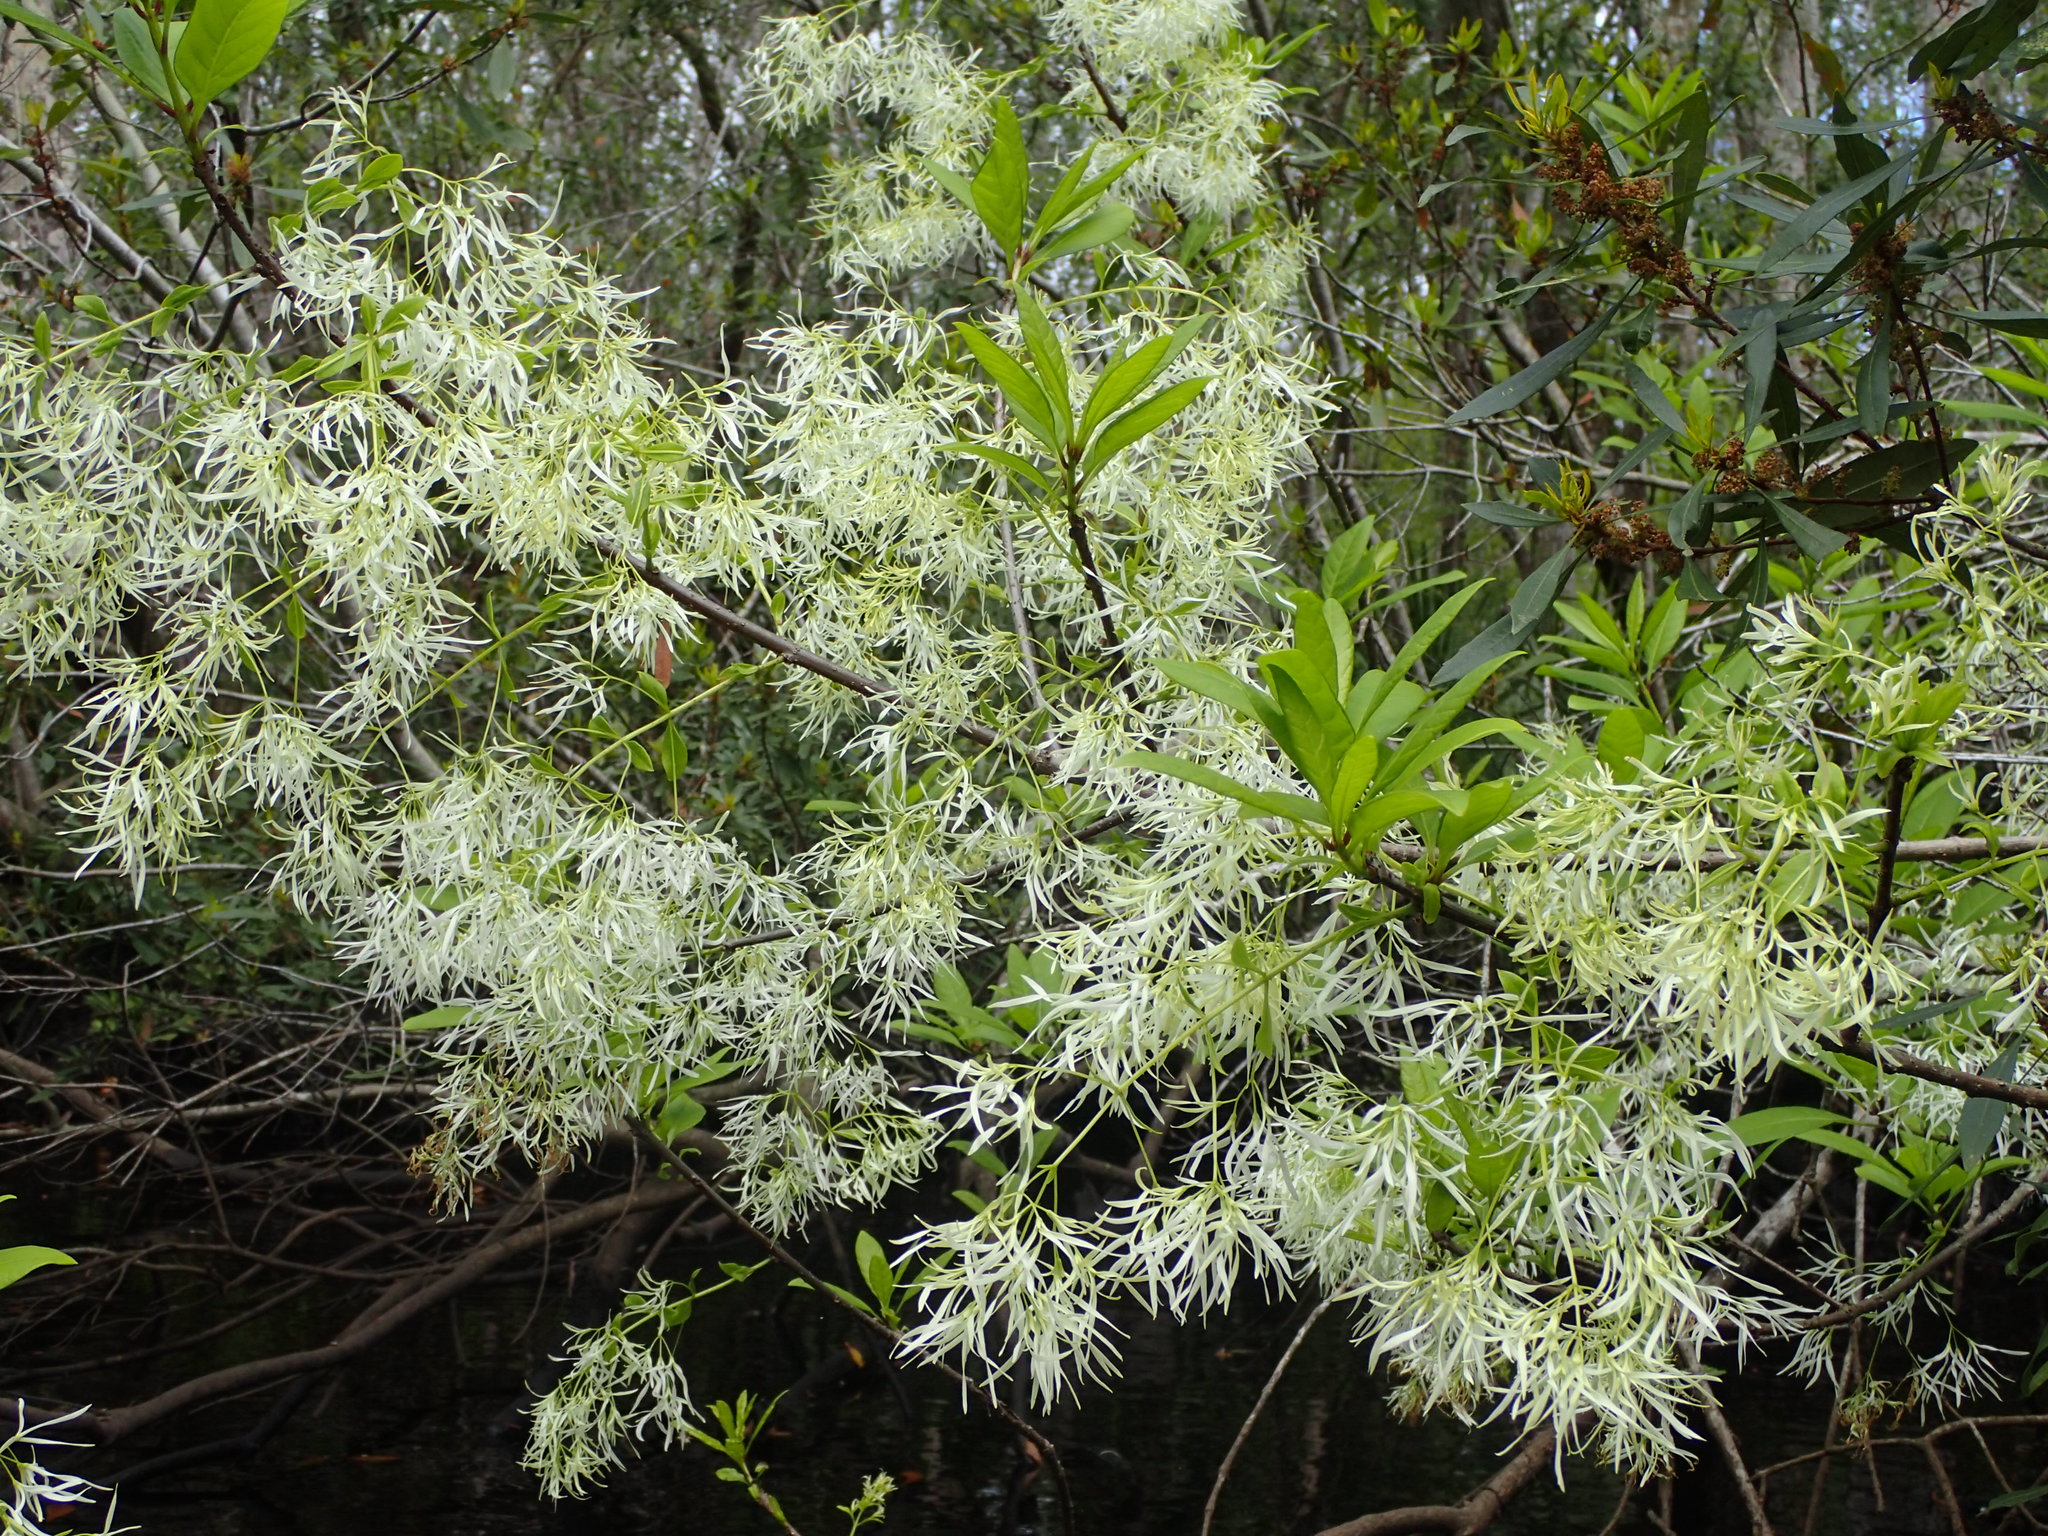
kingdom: Plantae
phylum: Tracheophyta
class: Magnoliopsida
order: Lamiales
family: Oleaceae
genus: Chionanthus
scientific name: Chionanthus virginicus
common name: American fringetree
